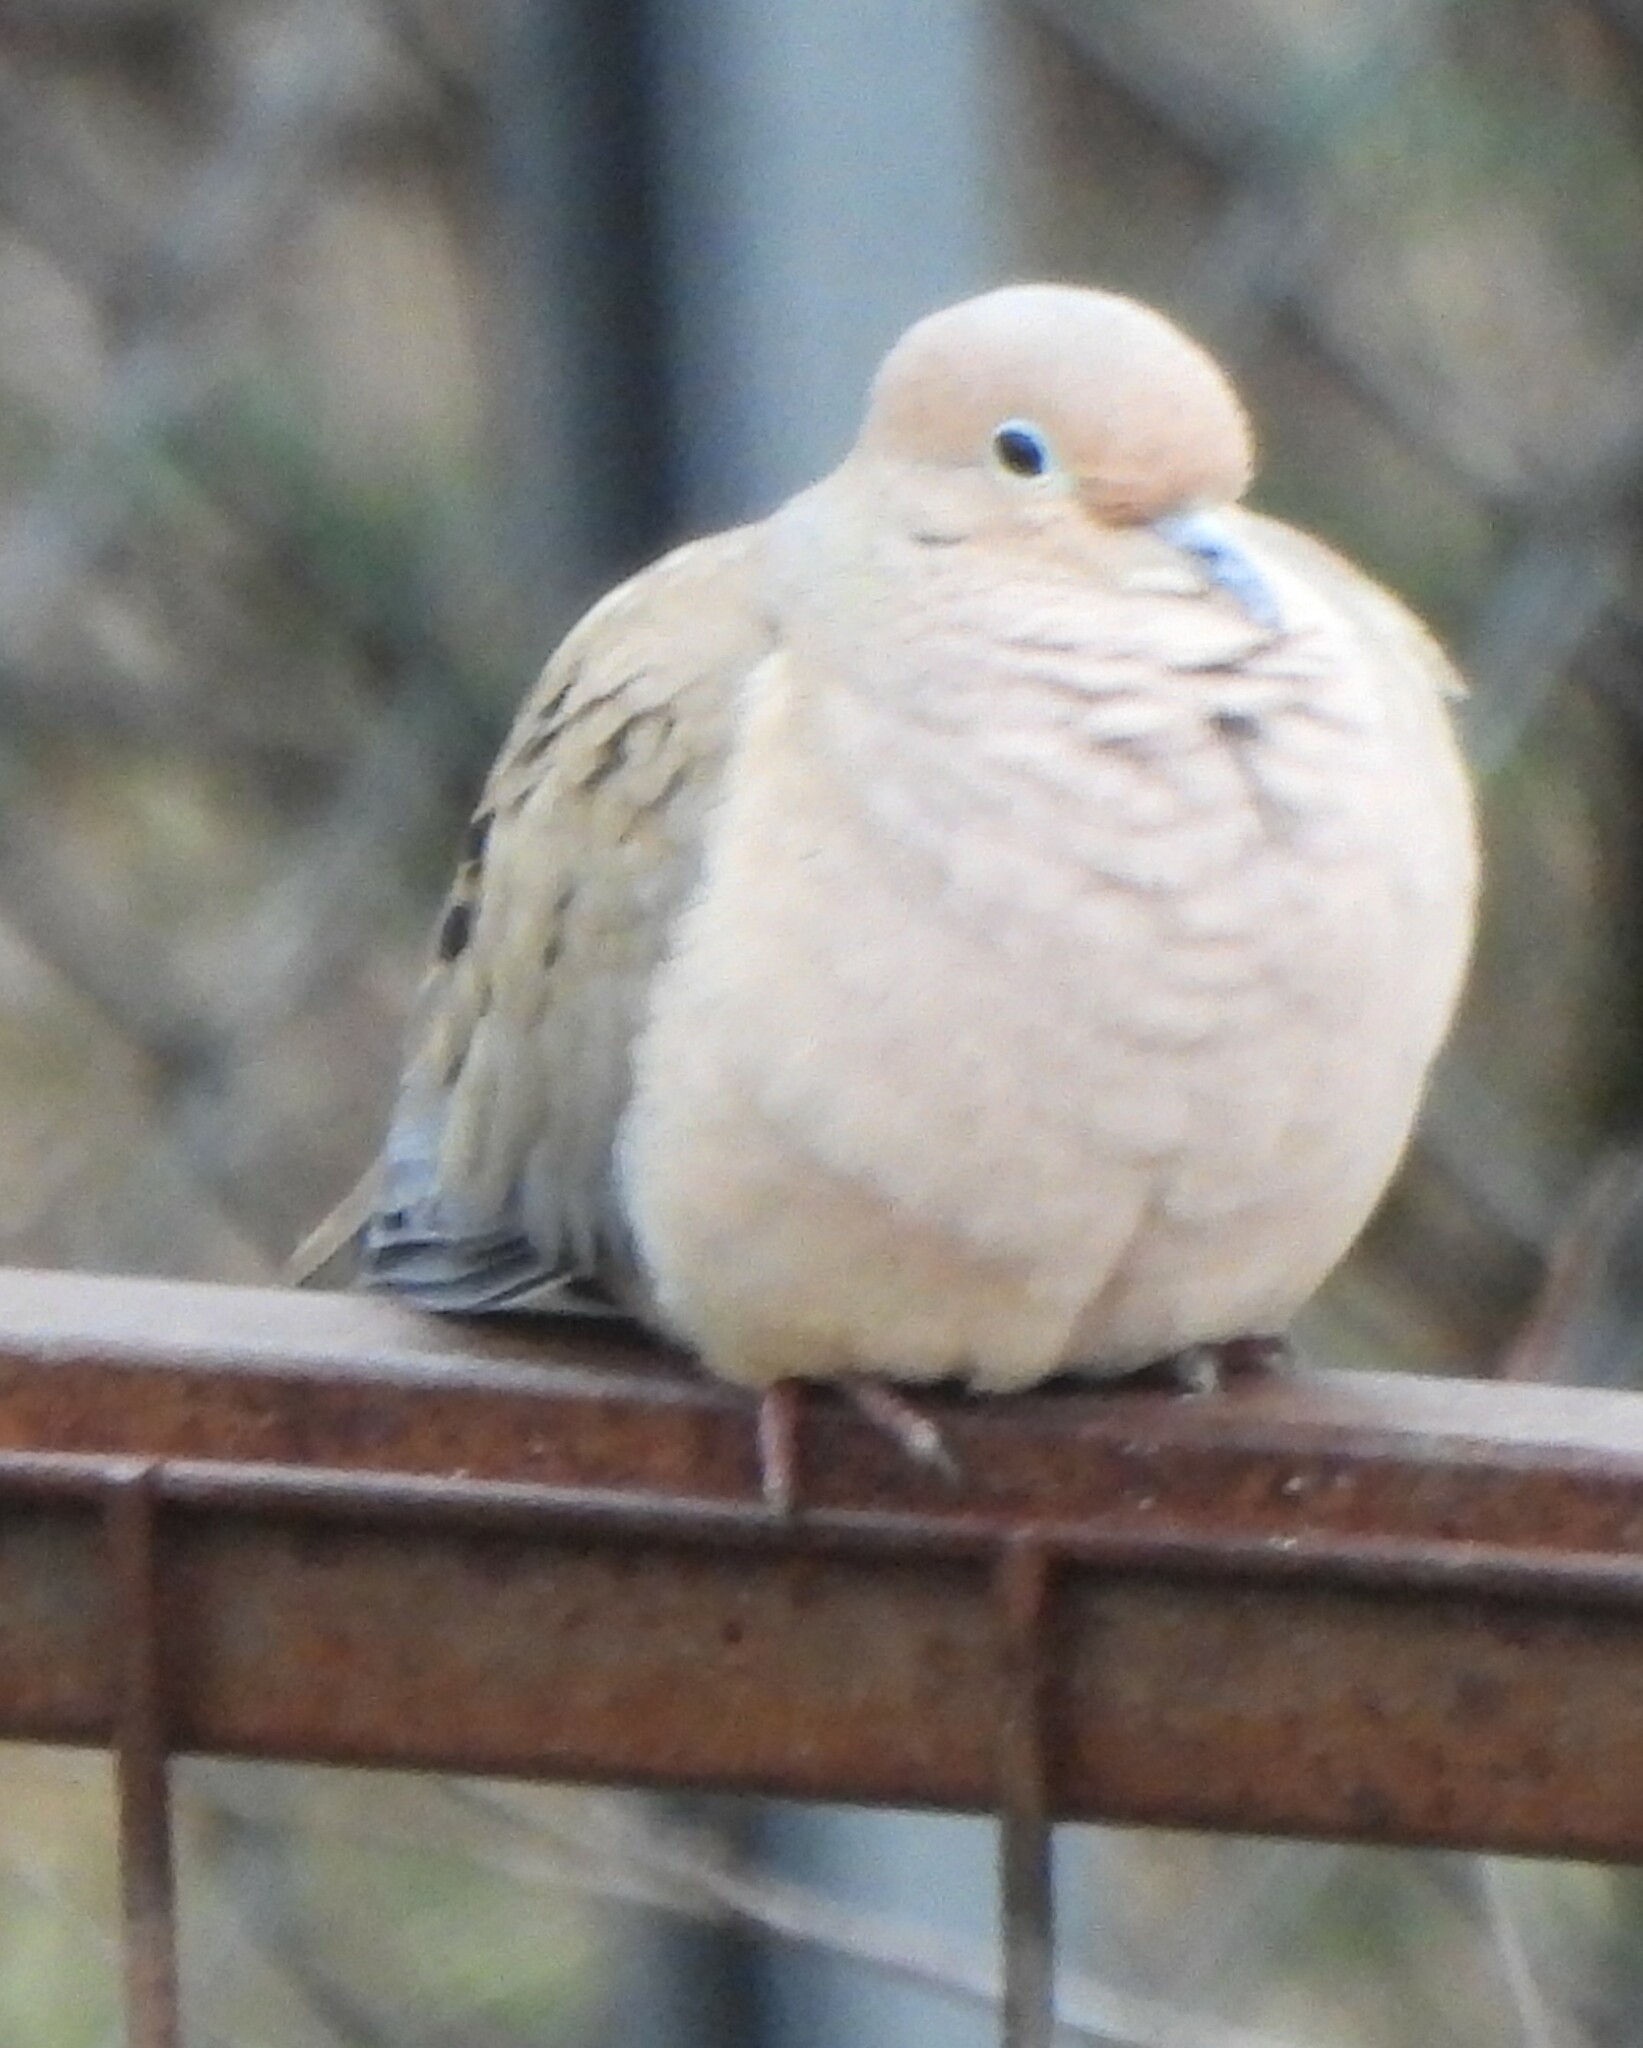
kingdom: Animalia
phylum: Chordata
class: Aves
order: Columbiformes
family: Columbidae
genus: Zenaida
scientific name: Zenaida macroura
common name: Mourning dove
